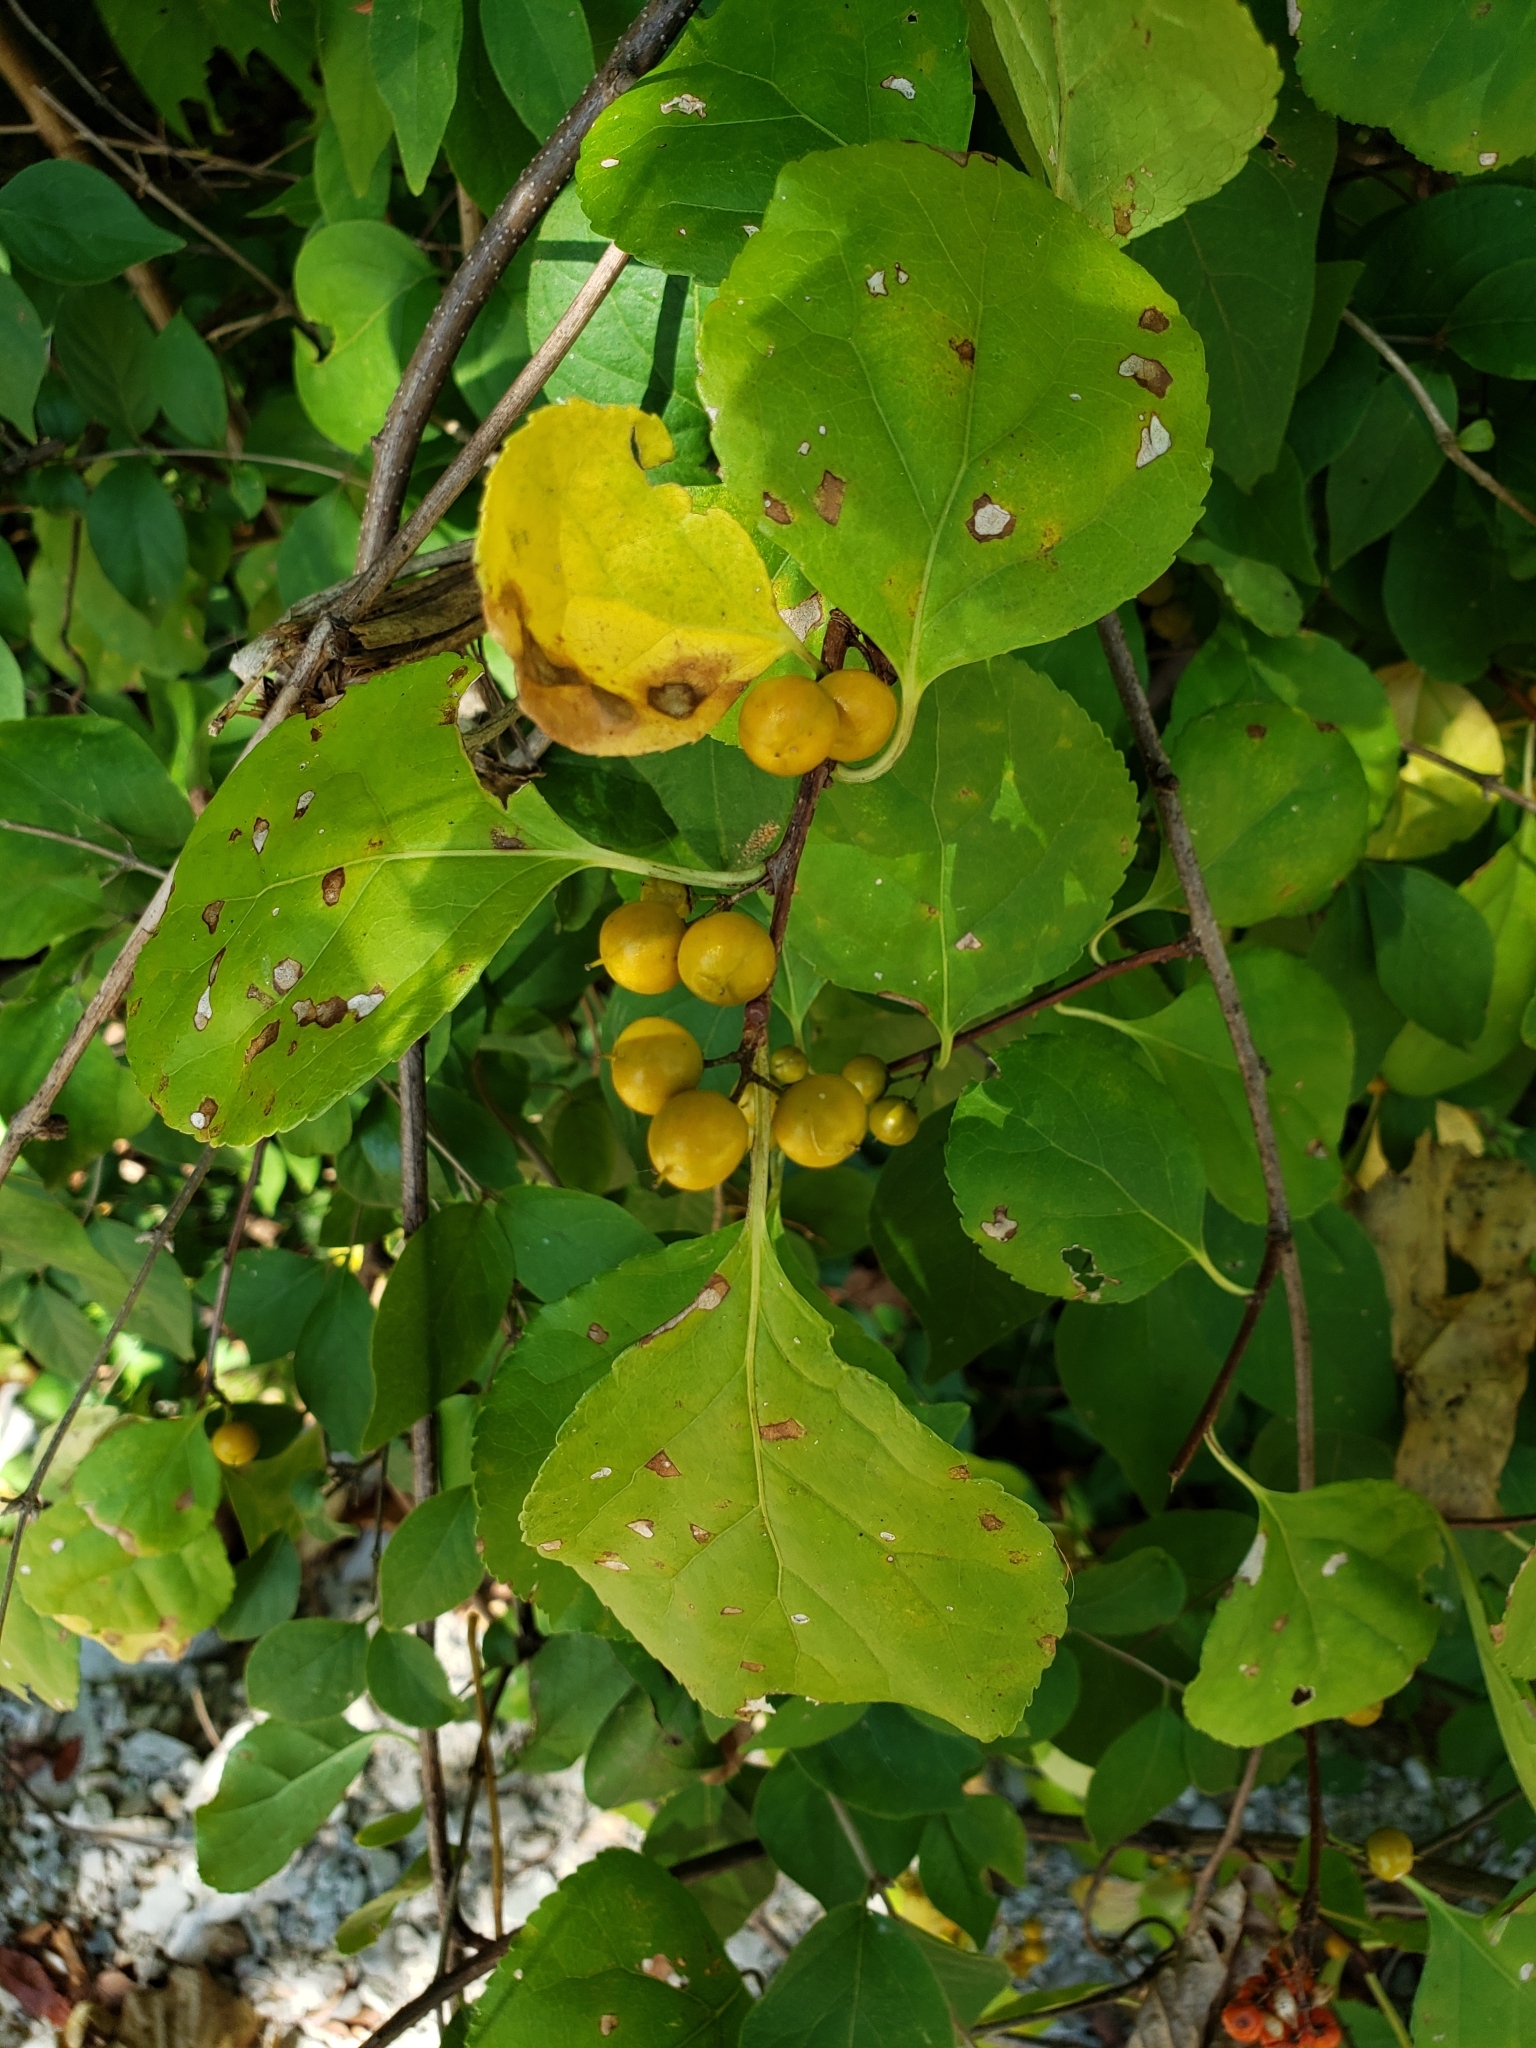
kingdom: Plantae
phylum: Tracheophyta
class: Magnoliopsida
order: Celastrales
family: Celastraceae
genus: Celastrus
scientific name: Celastrus orbiculatus
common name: Oriental bittersweet
